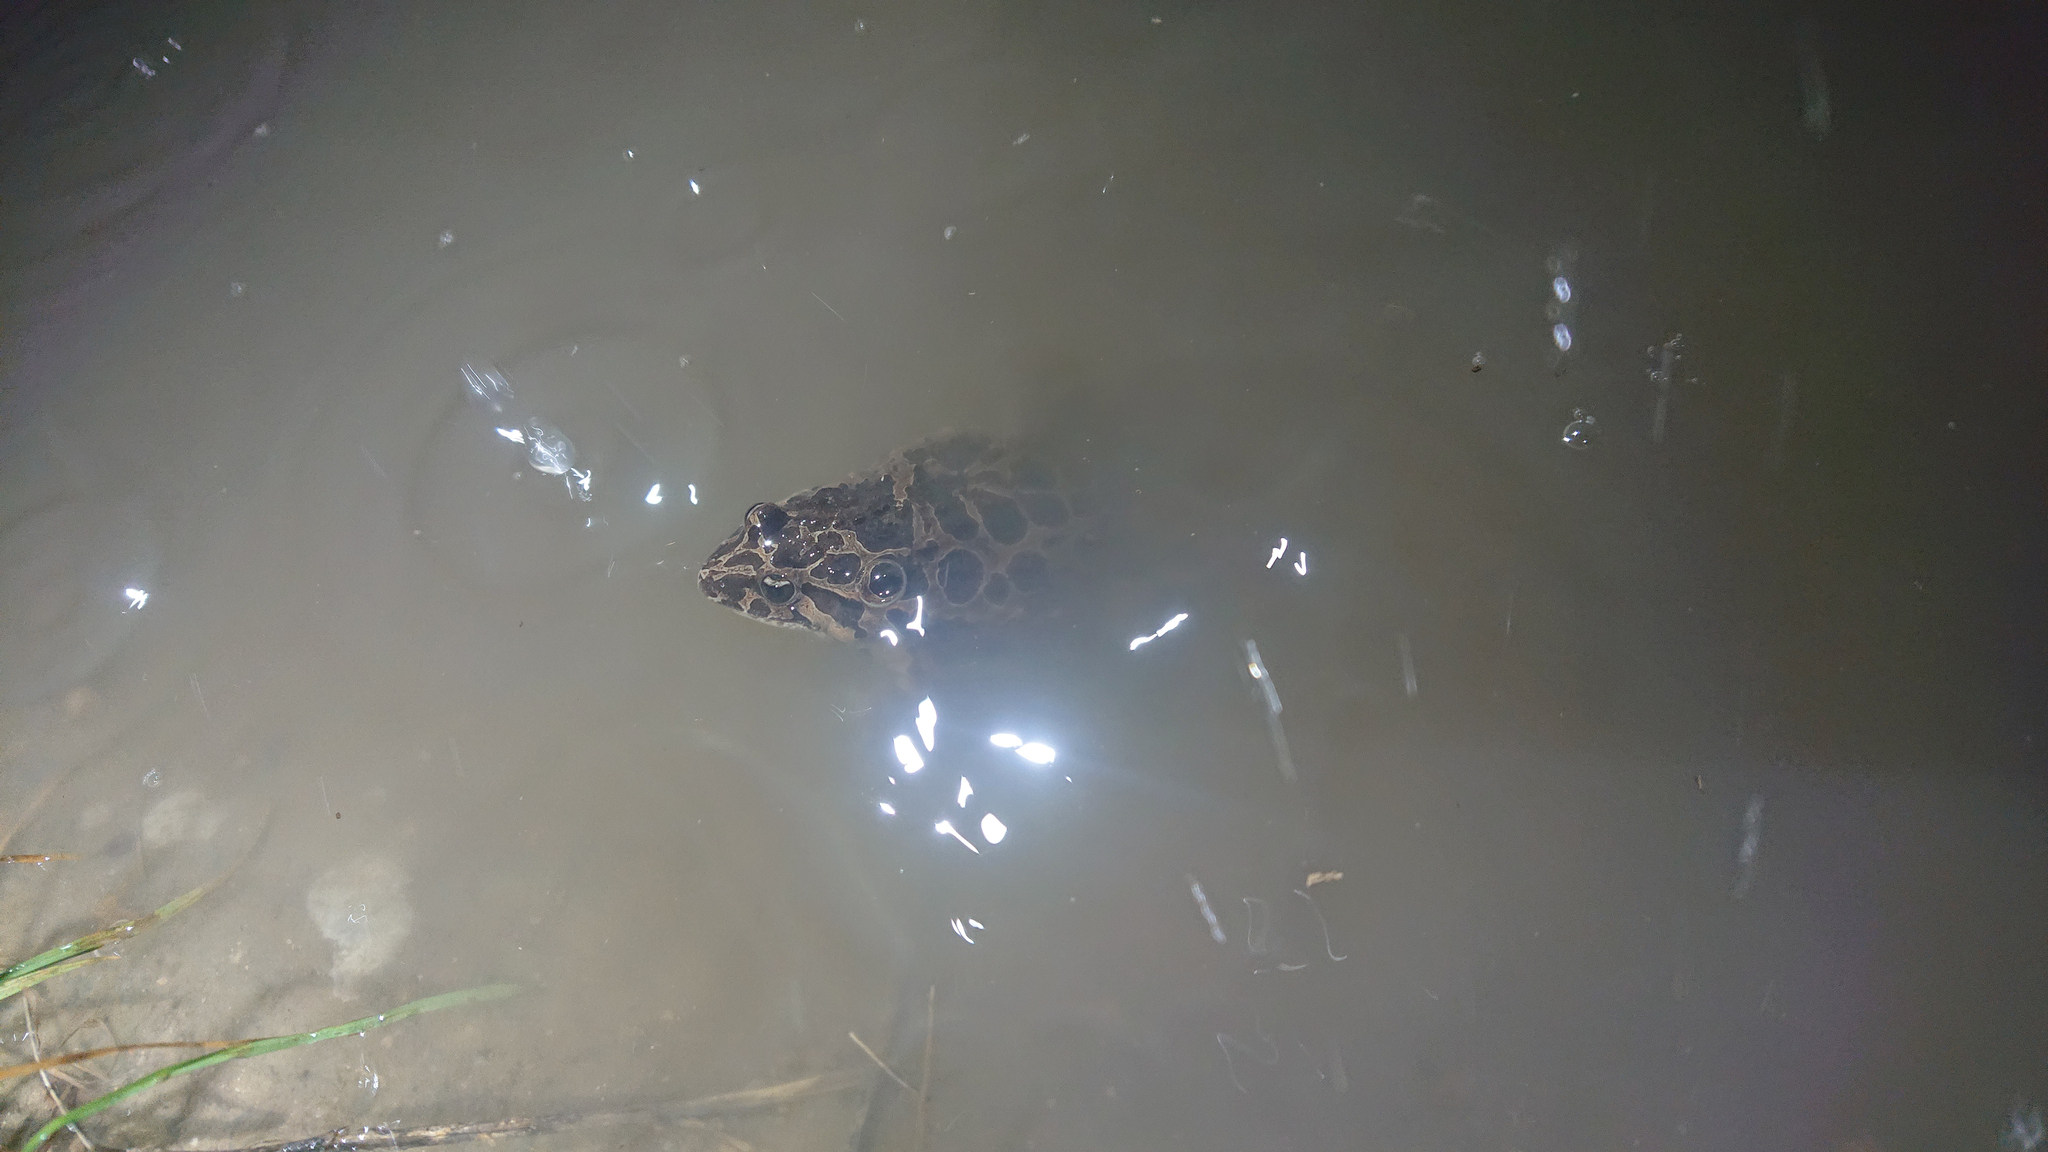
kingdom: Animalia
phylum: Chordata
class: Amphibia
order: Anura
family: Alytidae
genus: Discoglossus
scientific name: Discoglossus pictus
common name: Painted frog
